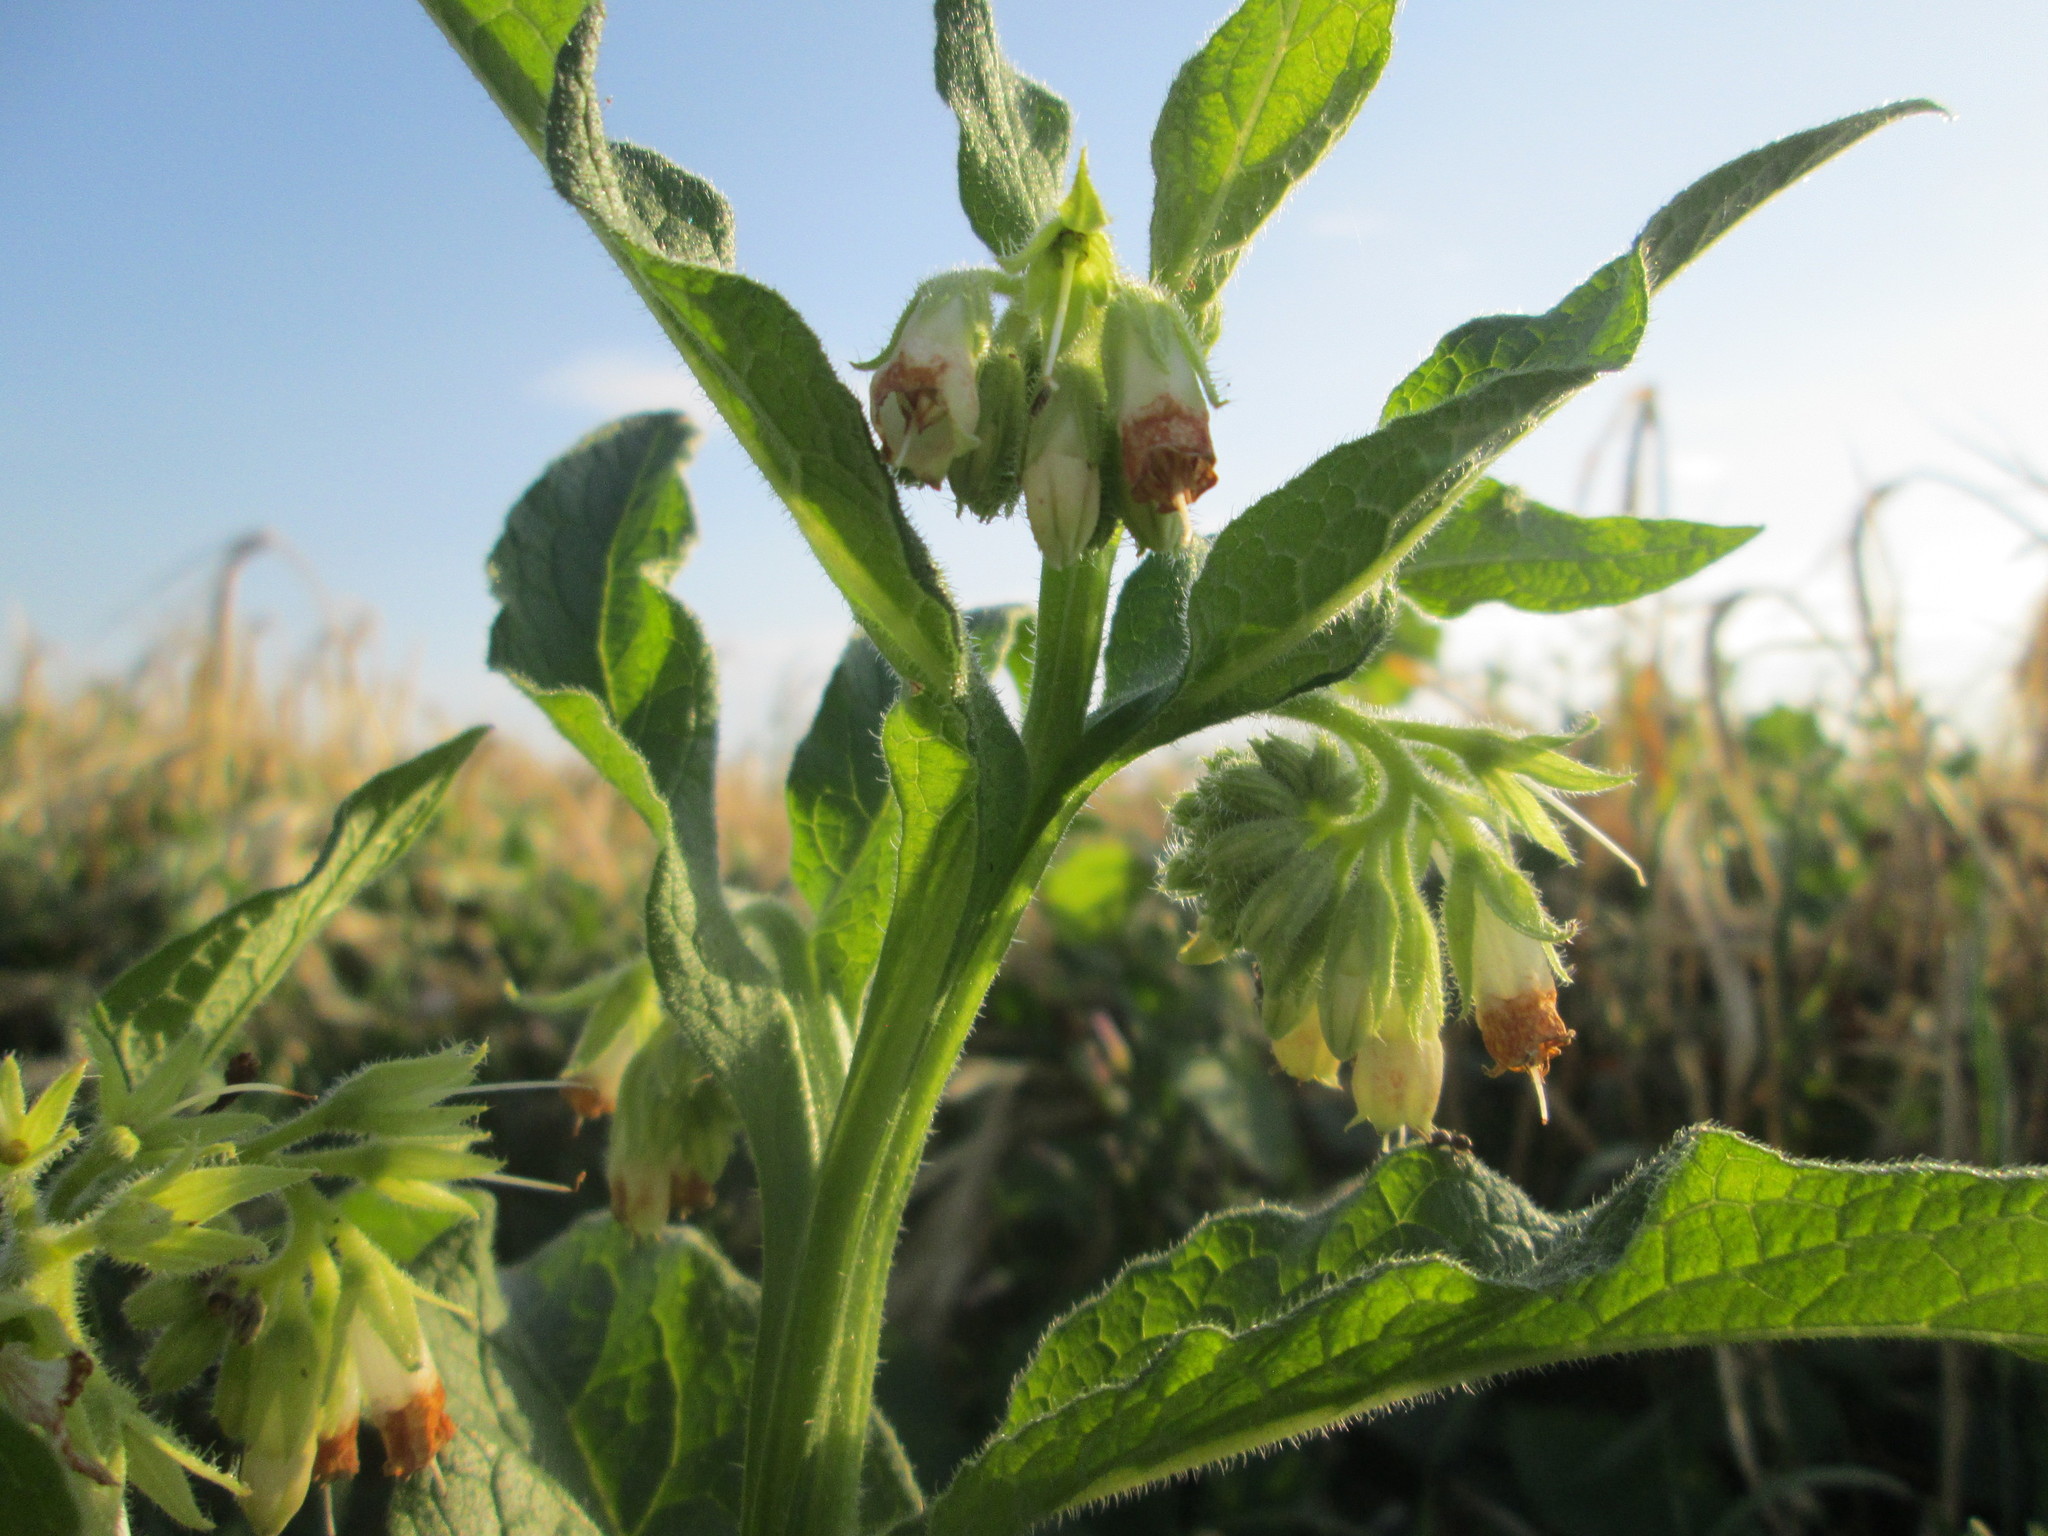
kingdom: Plantae
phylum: Tracheophyta
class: Magnoliopsida
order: Boraginales
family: Boraginaceae
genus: Symphytum
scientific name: Symphytum officinale
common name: Common comfrey
